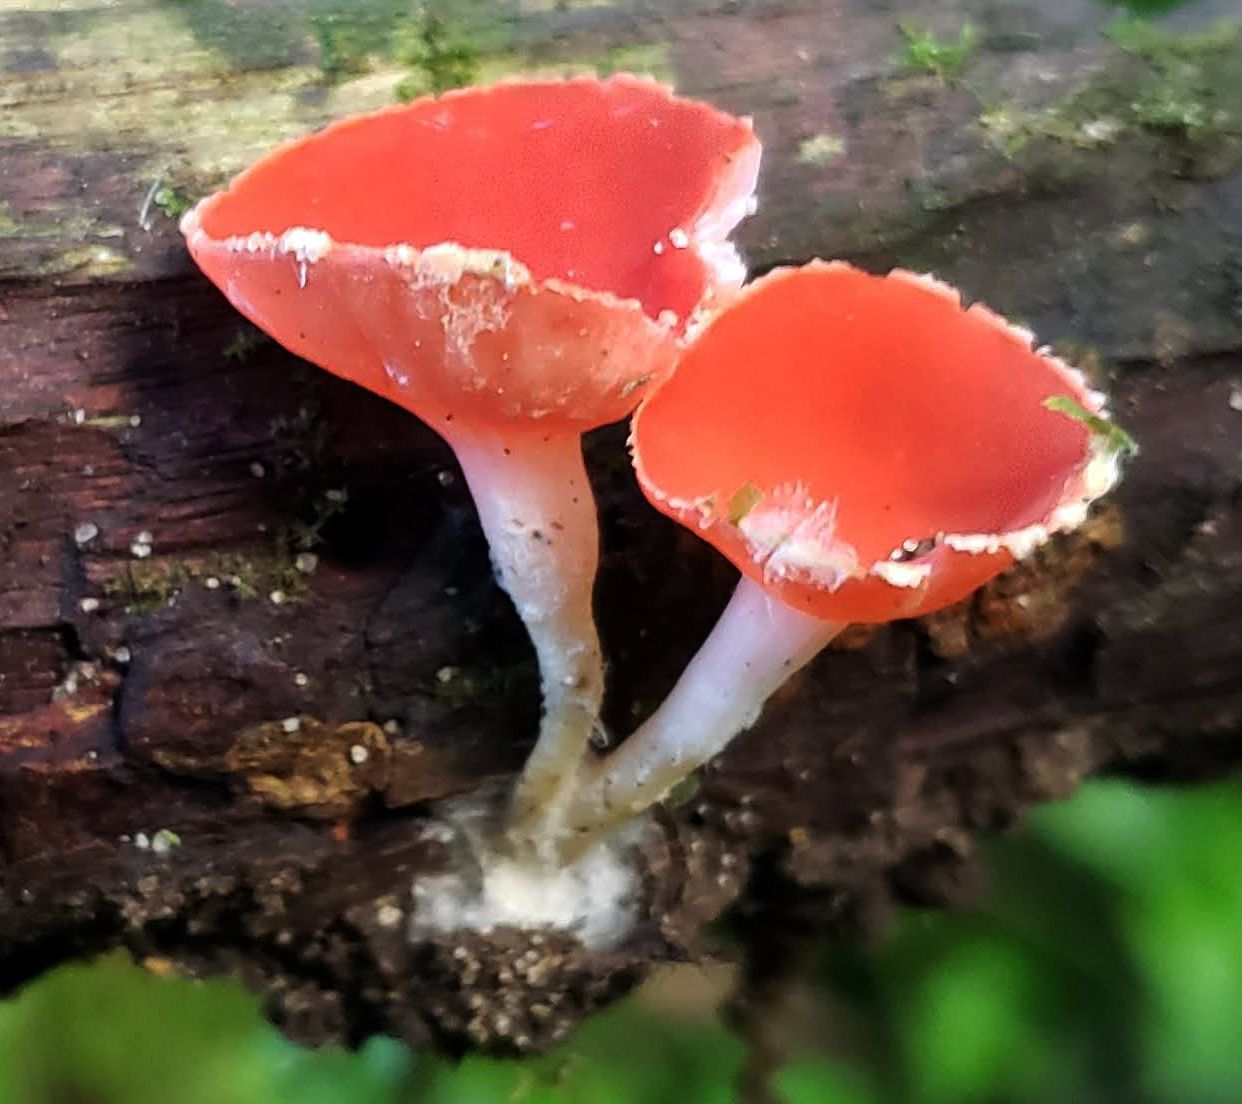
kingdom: Fungi
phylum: Ascomycota
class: Pezizomycetes
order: Pezizales
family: Sarcoscyphaceae
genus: Sarcoscypha
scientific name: Sarcoscypha occidentalis
